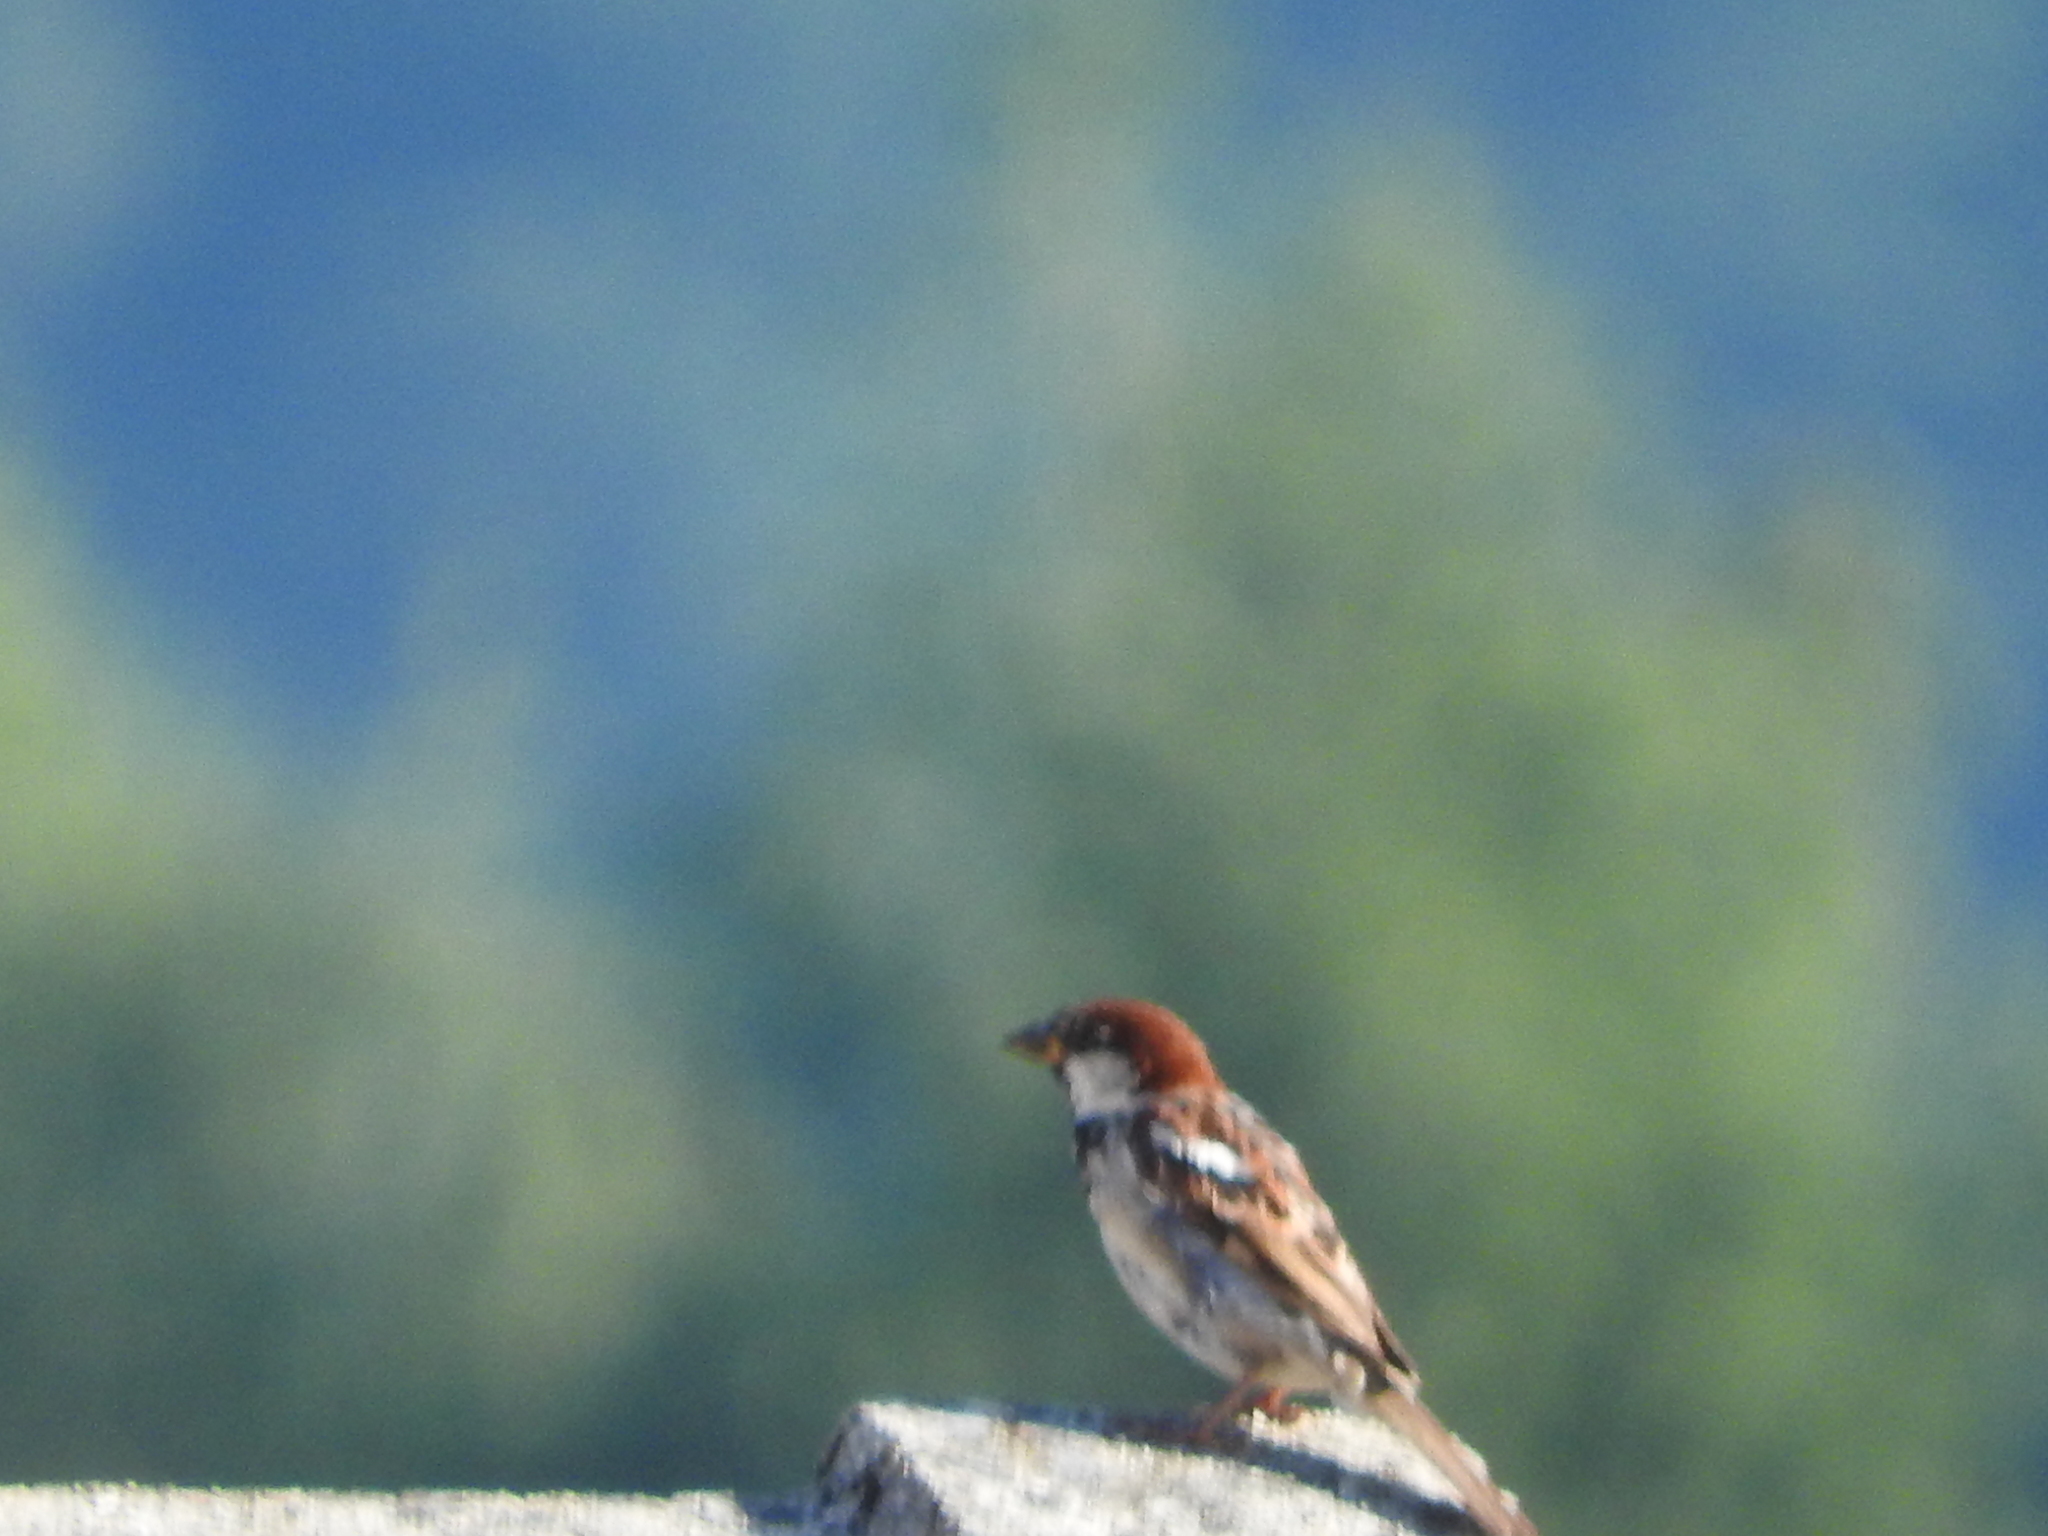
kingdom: Animalia
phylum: Chordata
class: Aves
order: Passeriformes
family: Passeridae
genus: Passer
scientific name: Passer italiae
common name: Italian sparrow
